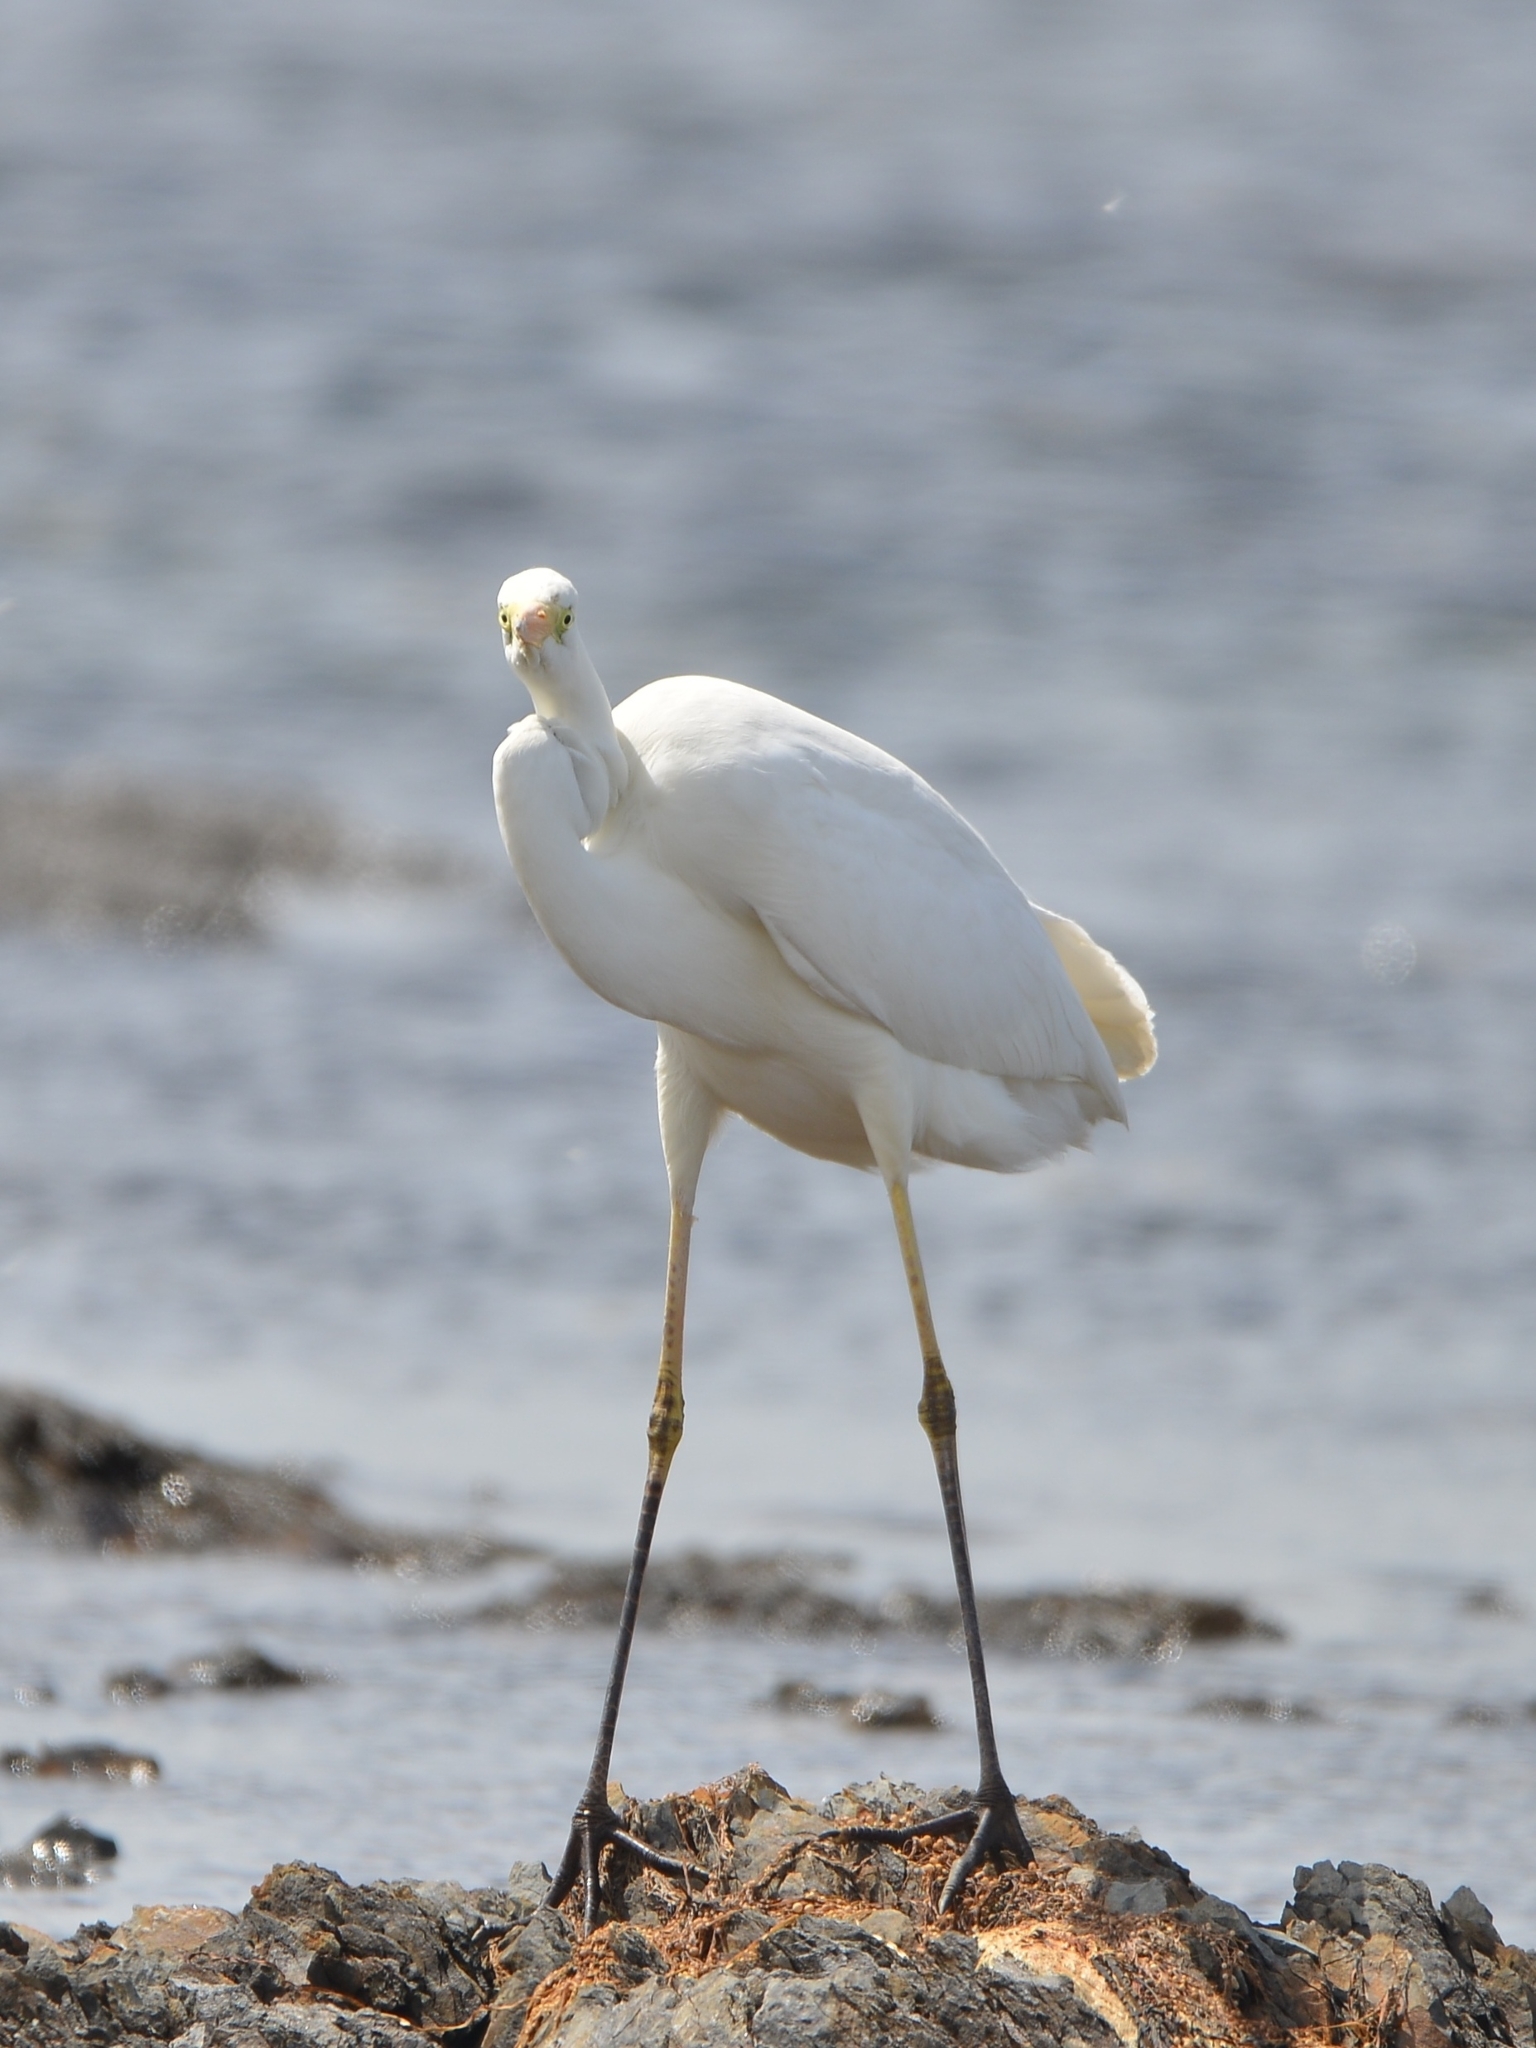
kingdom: Animalia
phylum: Chordata
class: Aves
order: Pelecaniformes
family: Ardeidae
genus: Ardea
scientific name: Ardea alba
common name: Great egret
